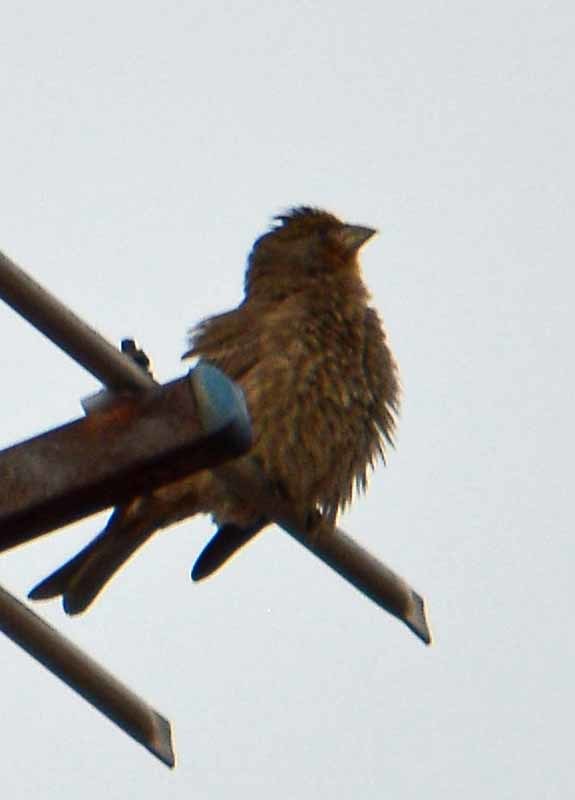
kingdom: Animalia
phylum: Chordata
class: Aves
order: Passeriformes
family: Fringillidae
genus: Haemorhous
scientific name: Haemorhous mexicanus
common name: House finch
